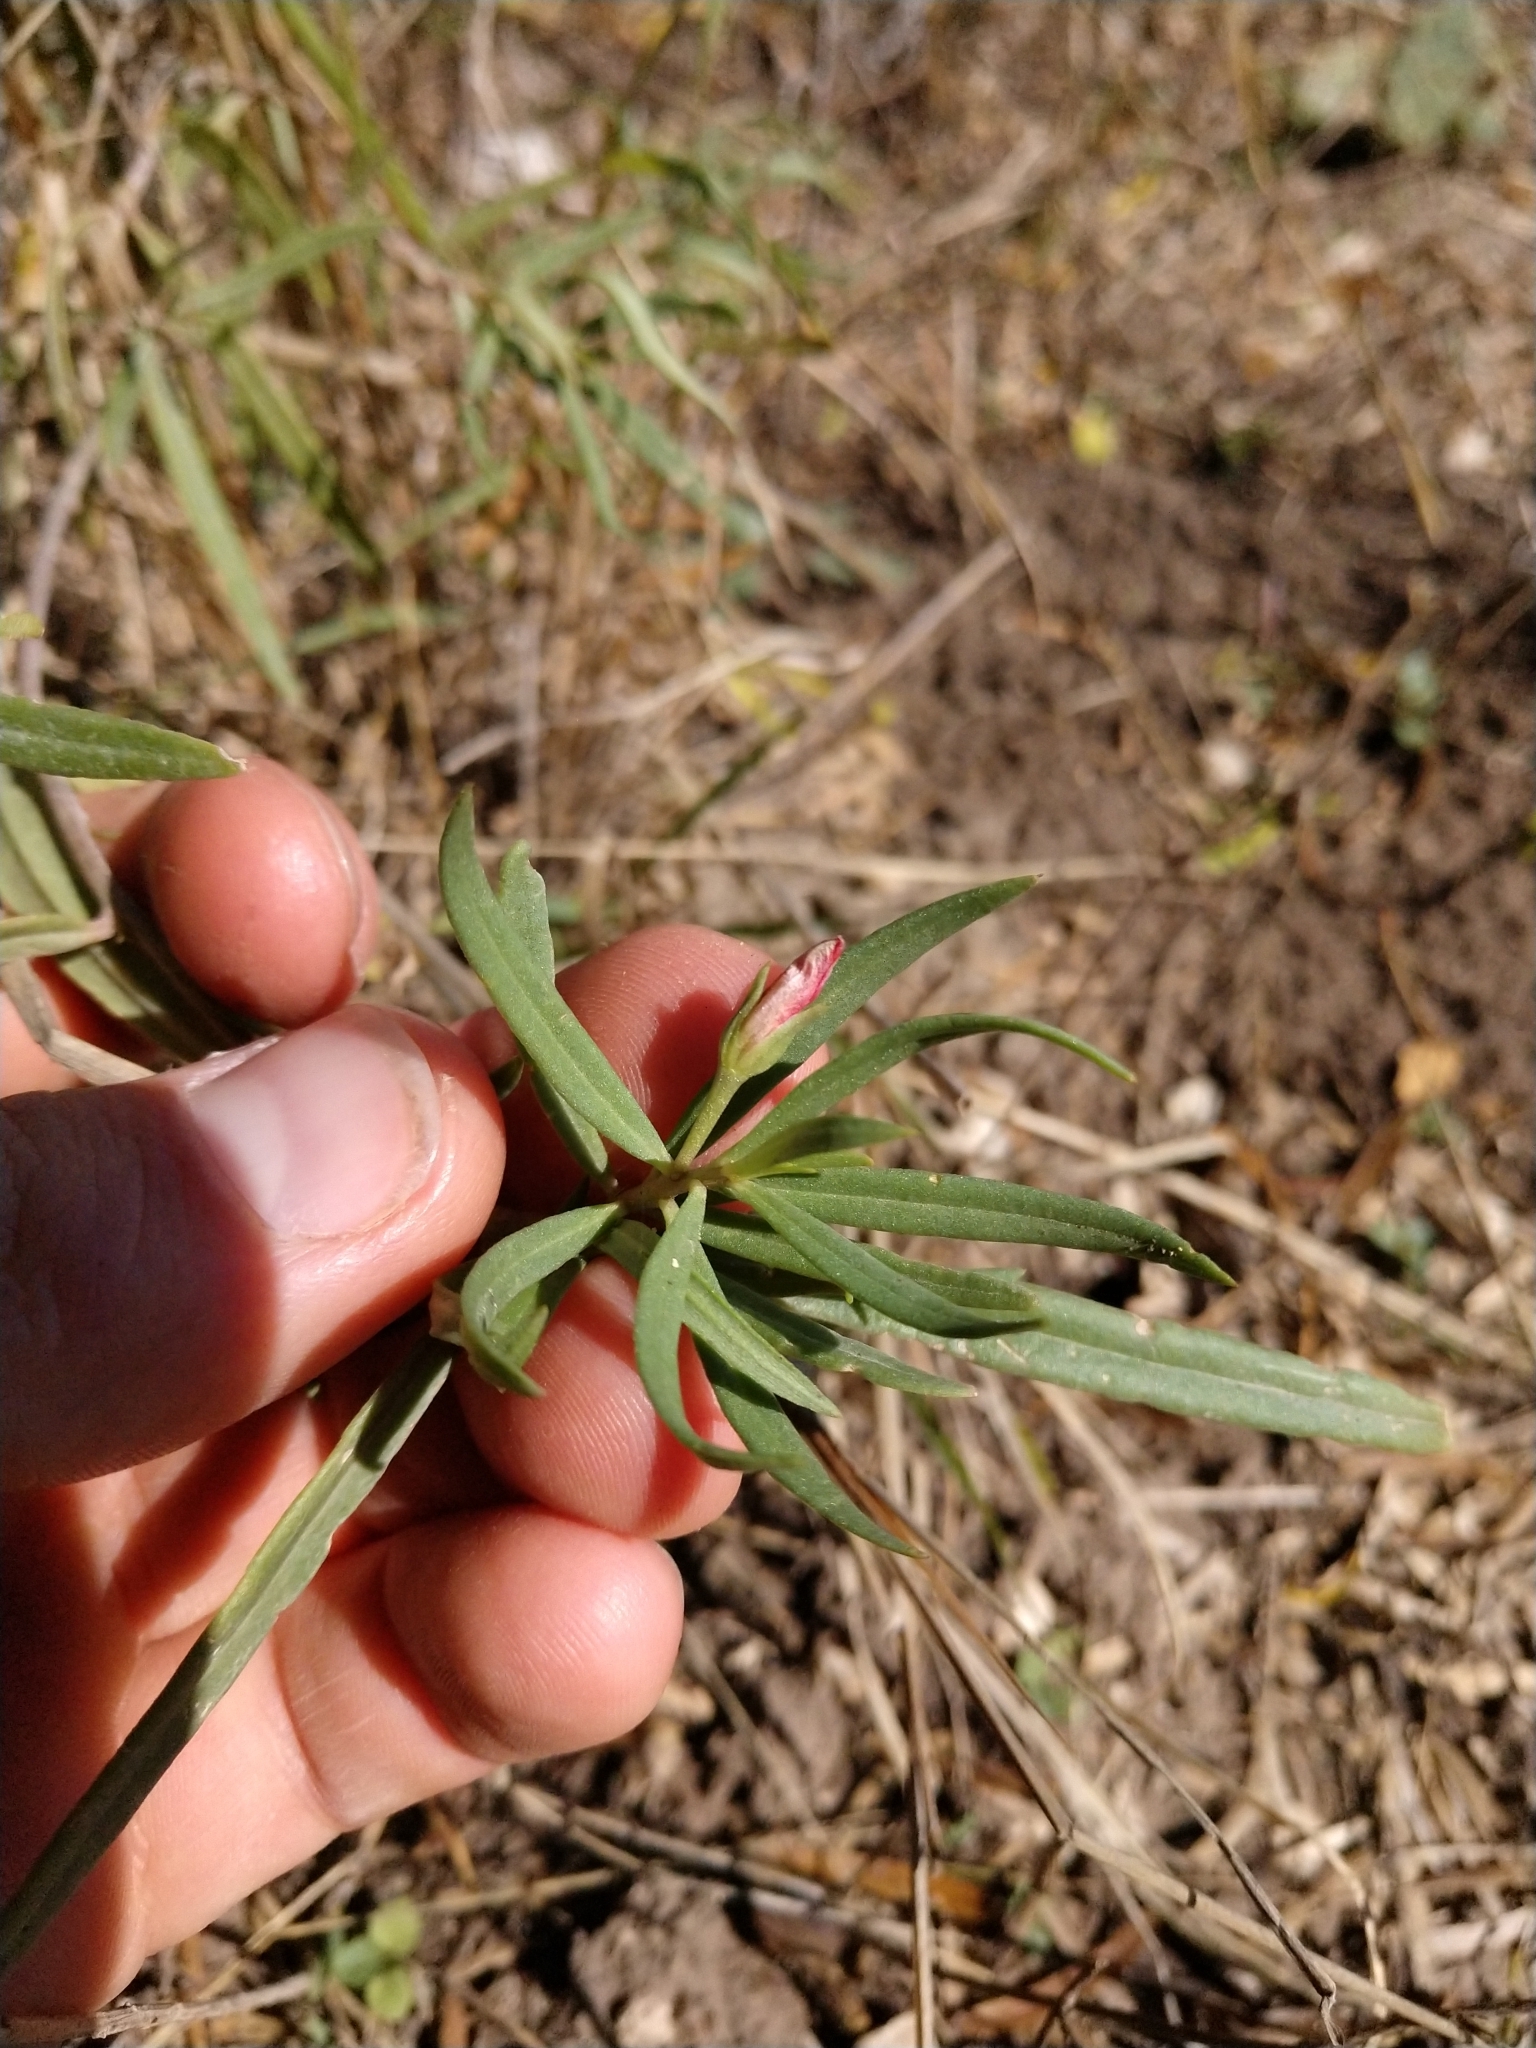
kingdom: Plantae
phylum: Tracheophyta
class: Magnoliopsida
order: Caryophyllales
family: Montiaceae
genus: Phemeranthus
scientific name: Phemeranthus aurantiacus
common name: Orange fameflower
